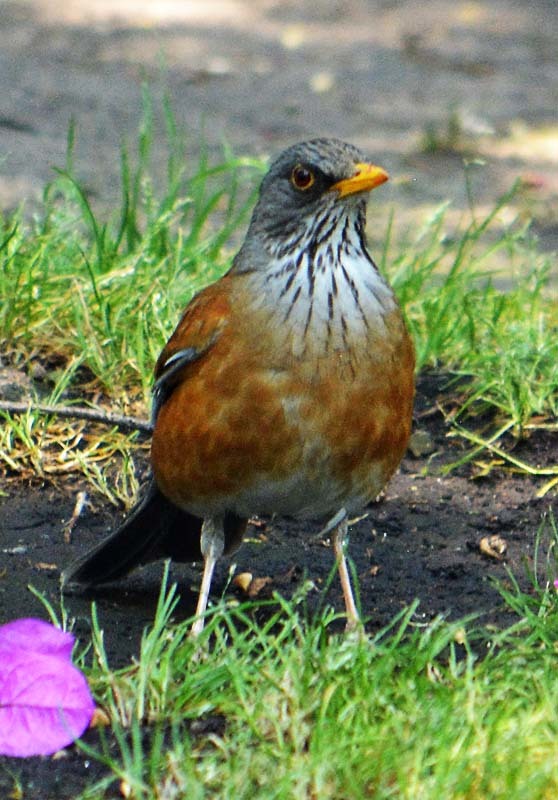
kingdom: Animalia
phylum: Chordata
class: Aves
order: Passeriformes
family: Turdidae
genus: Turdus
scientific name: Turdus rufopalliatus
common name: Rufous-backed robin
